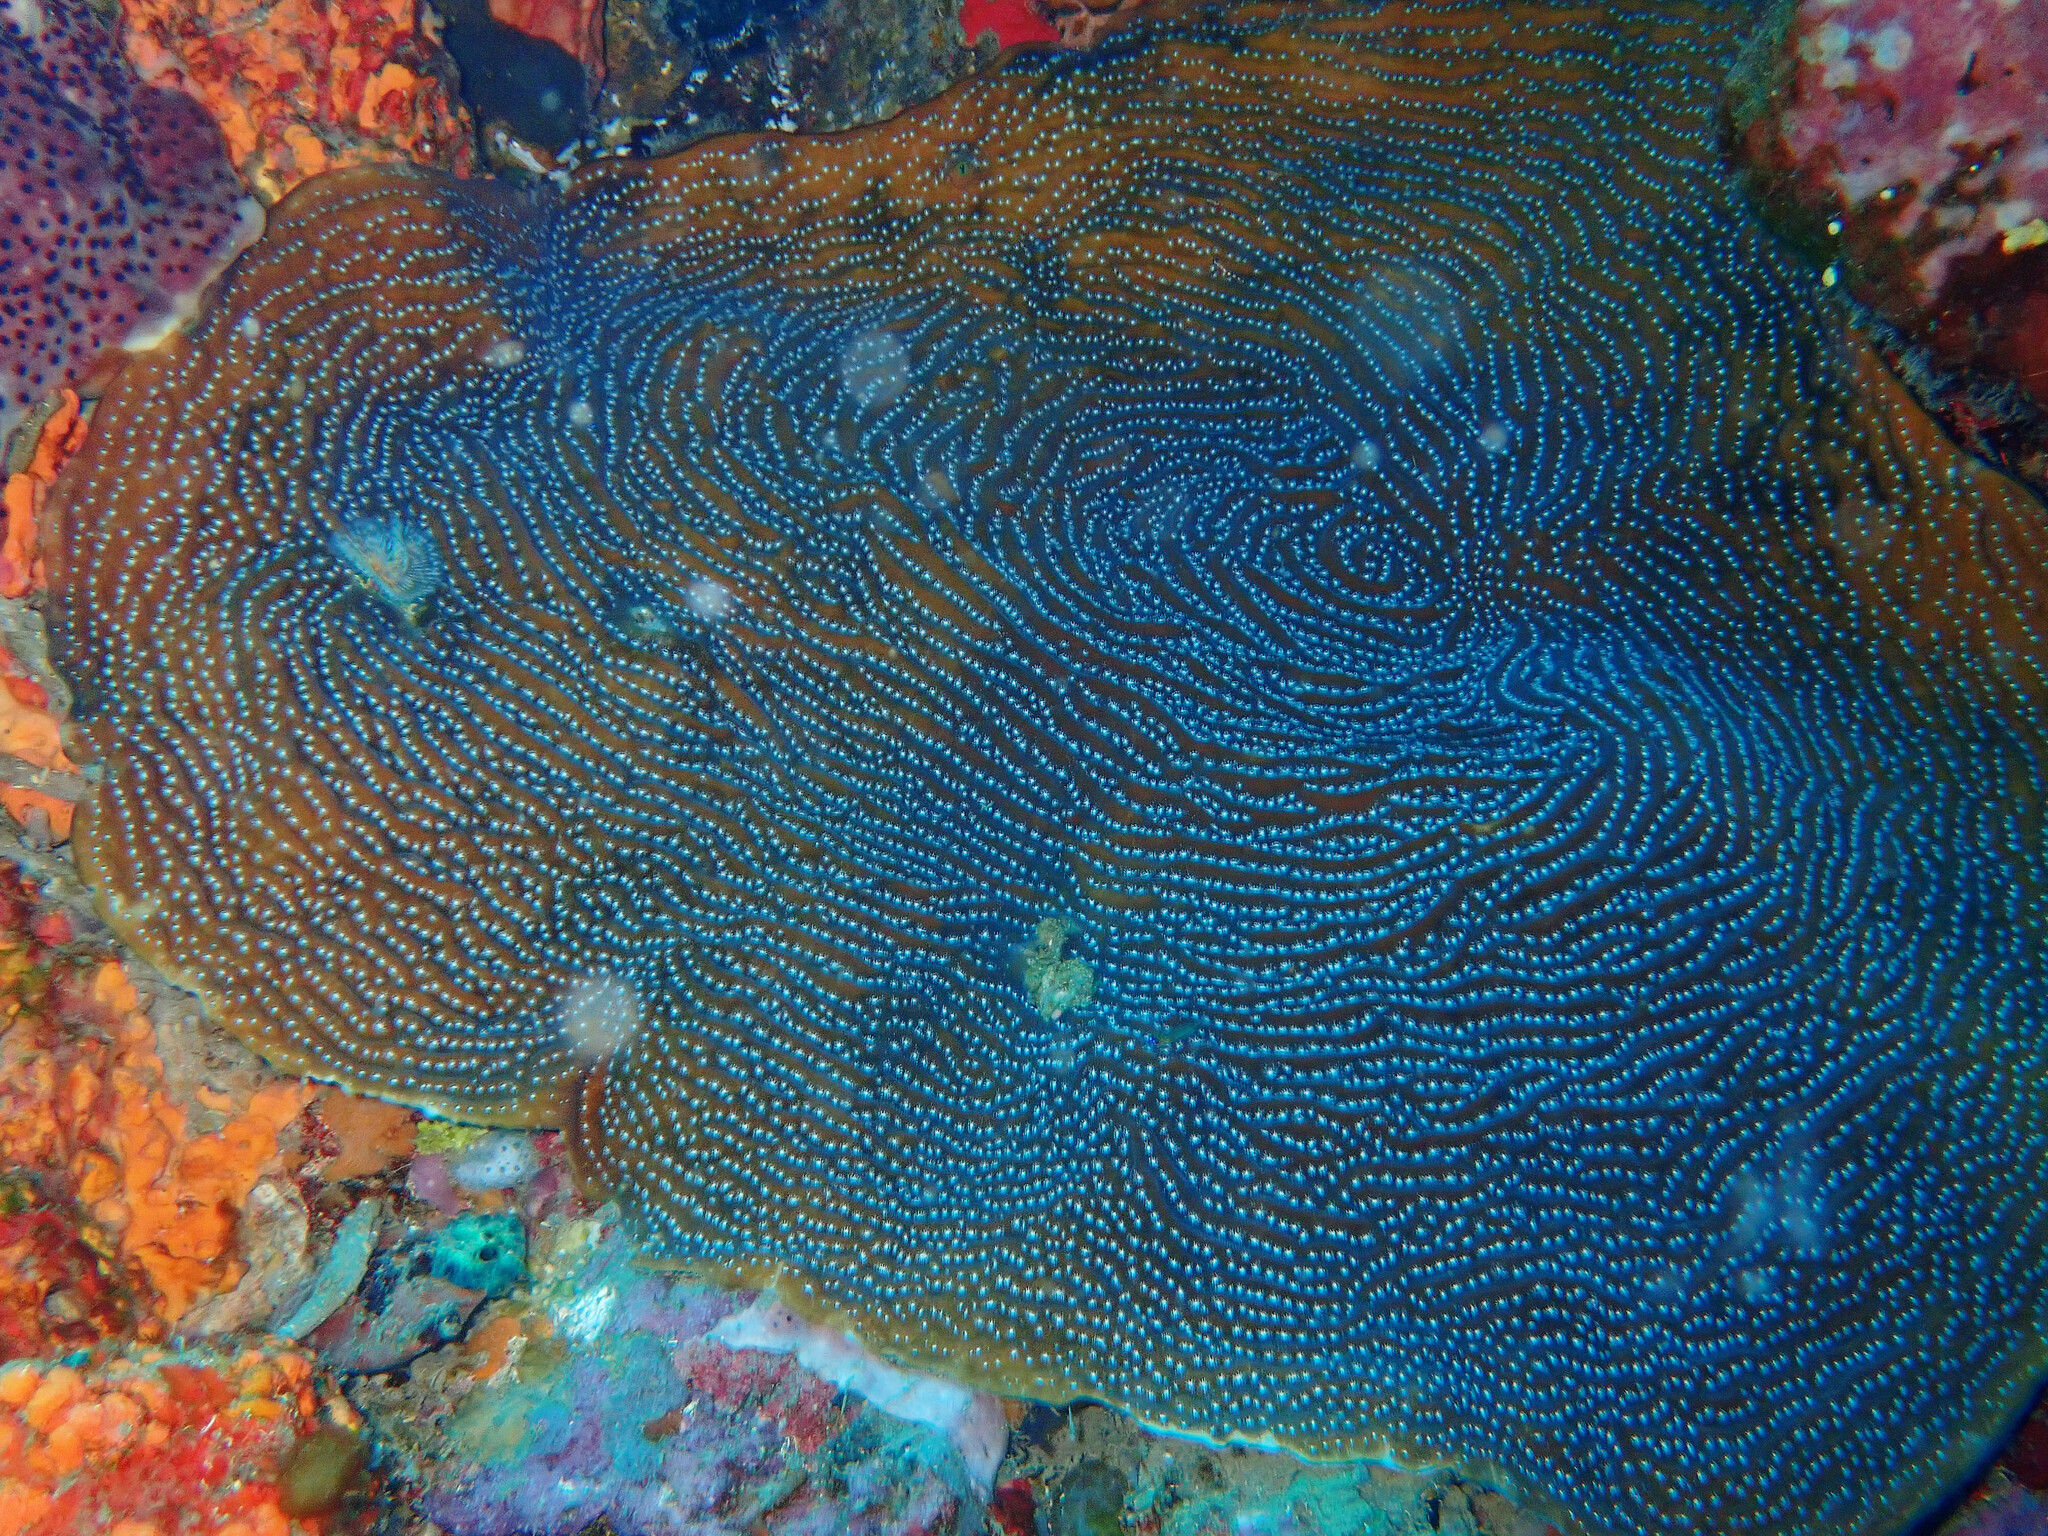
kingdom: Animalia
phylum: Cnidaria
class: Anthozoa
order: Scleractinia
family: Agariciidae
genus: Agaricia
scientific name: Agaricia lamarcki
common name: Lamarck's sheet coral
